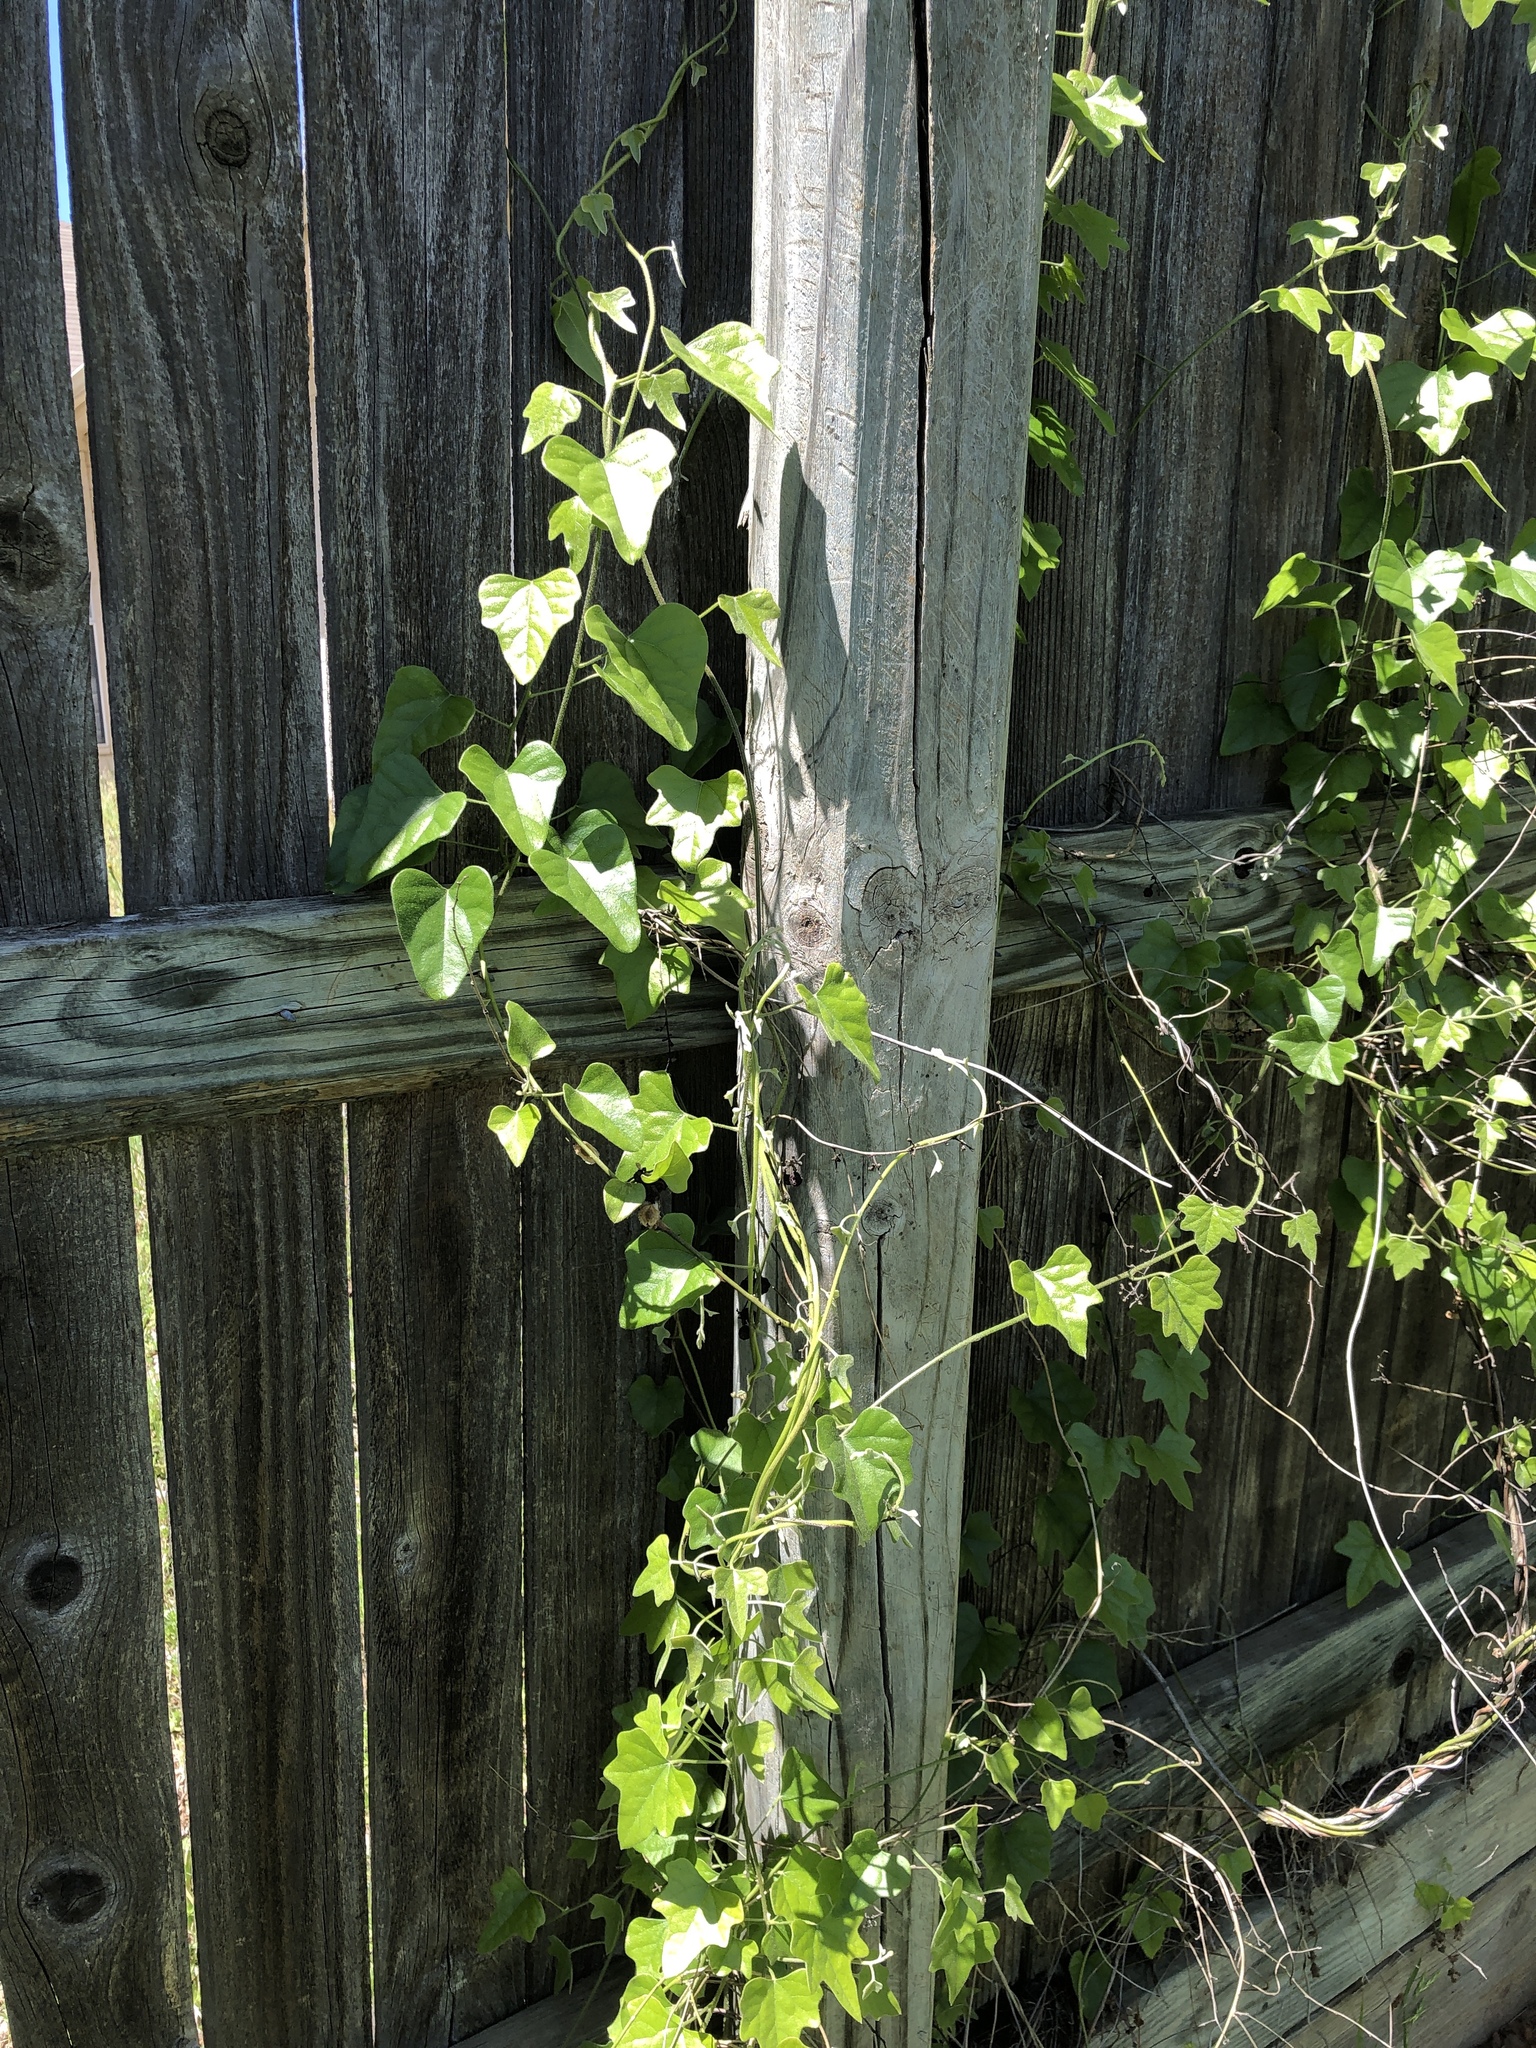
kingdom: Plantae
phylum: Tracheophyta
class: Magnoliopsida
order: Ranunculales
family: Menispermaceae
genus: Cocculus
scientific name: Cocculus carolinus
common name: Carolina moonseed
